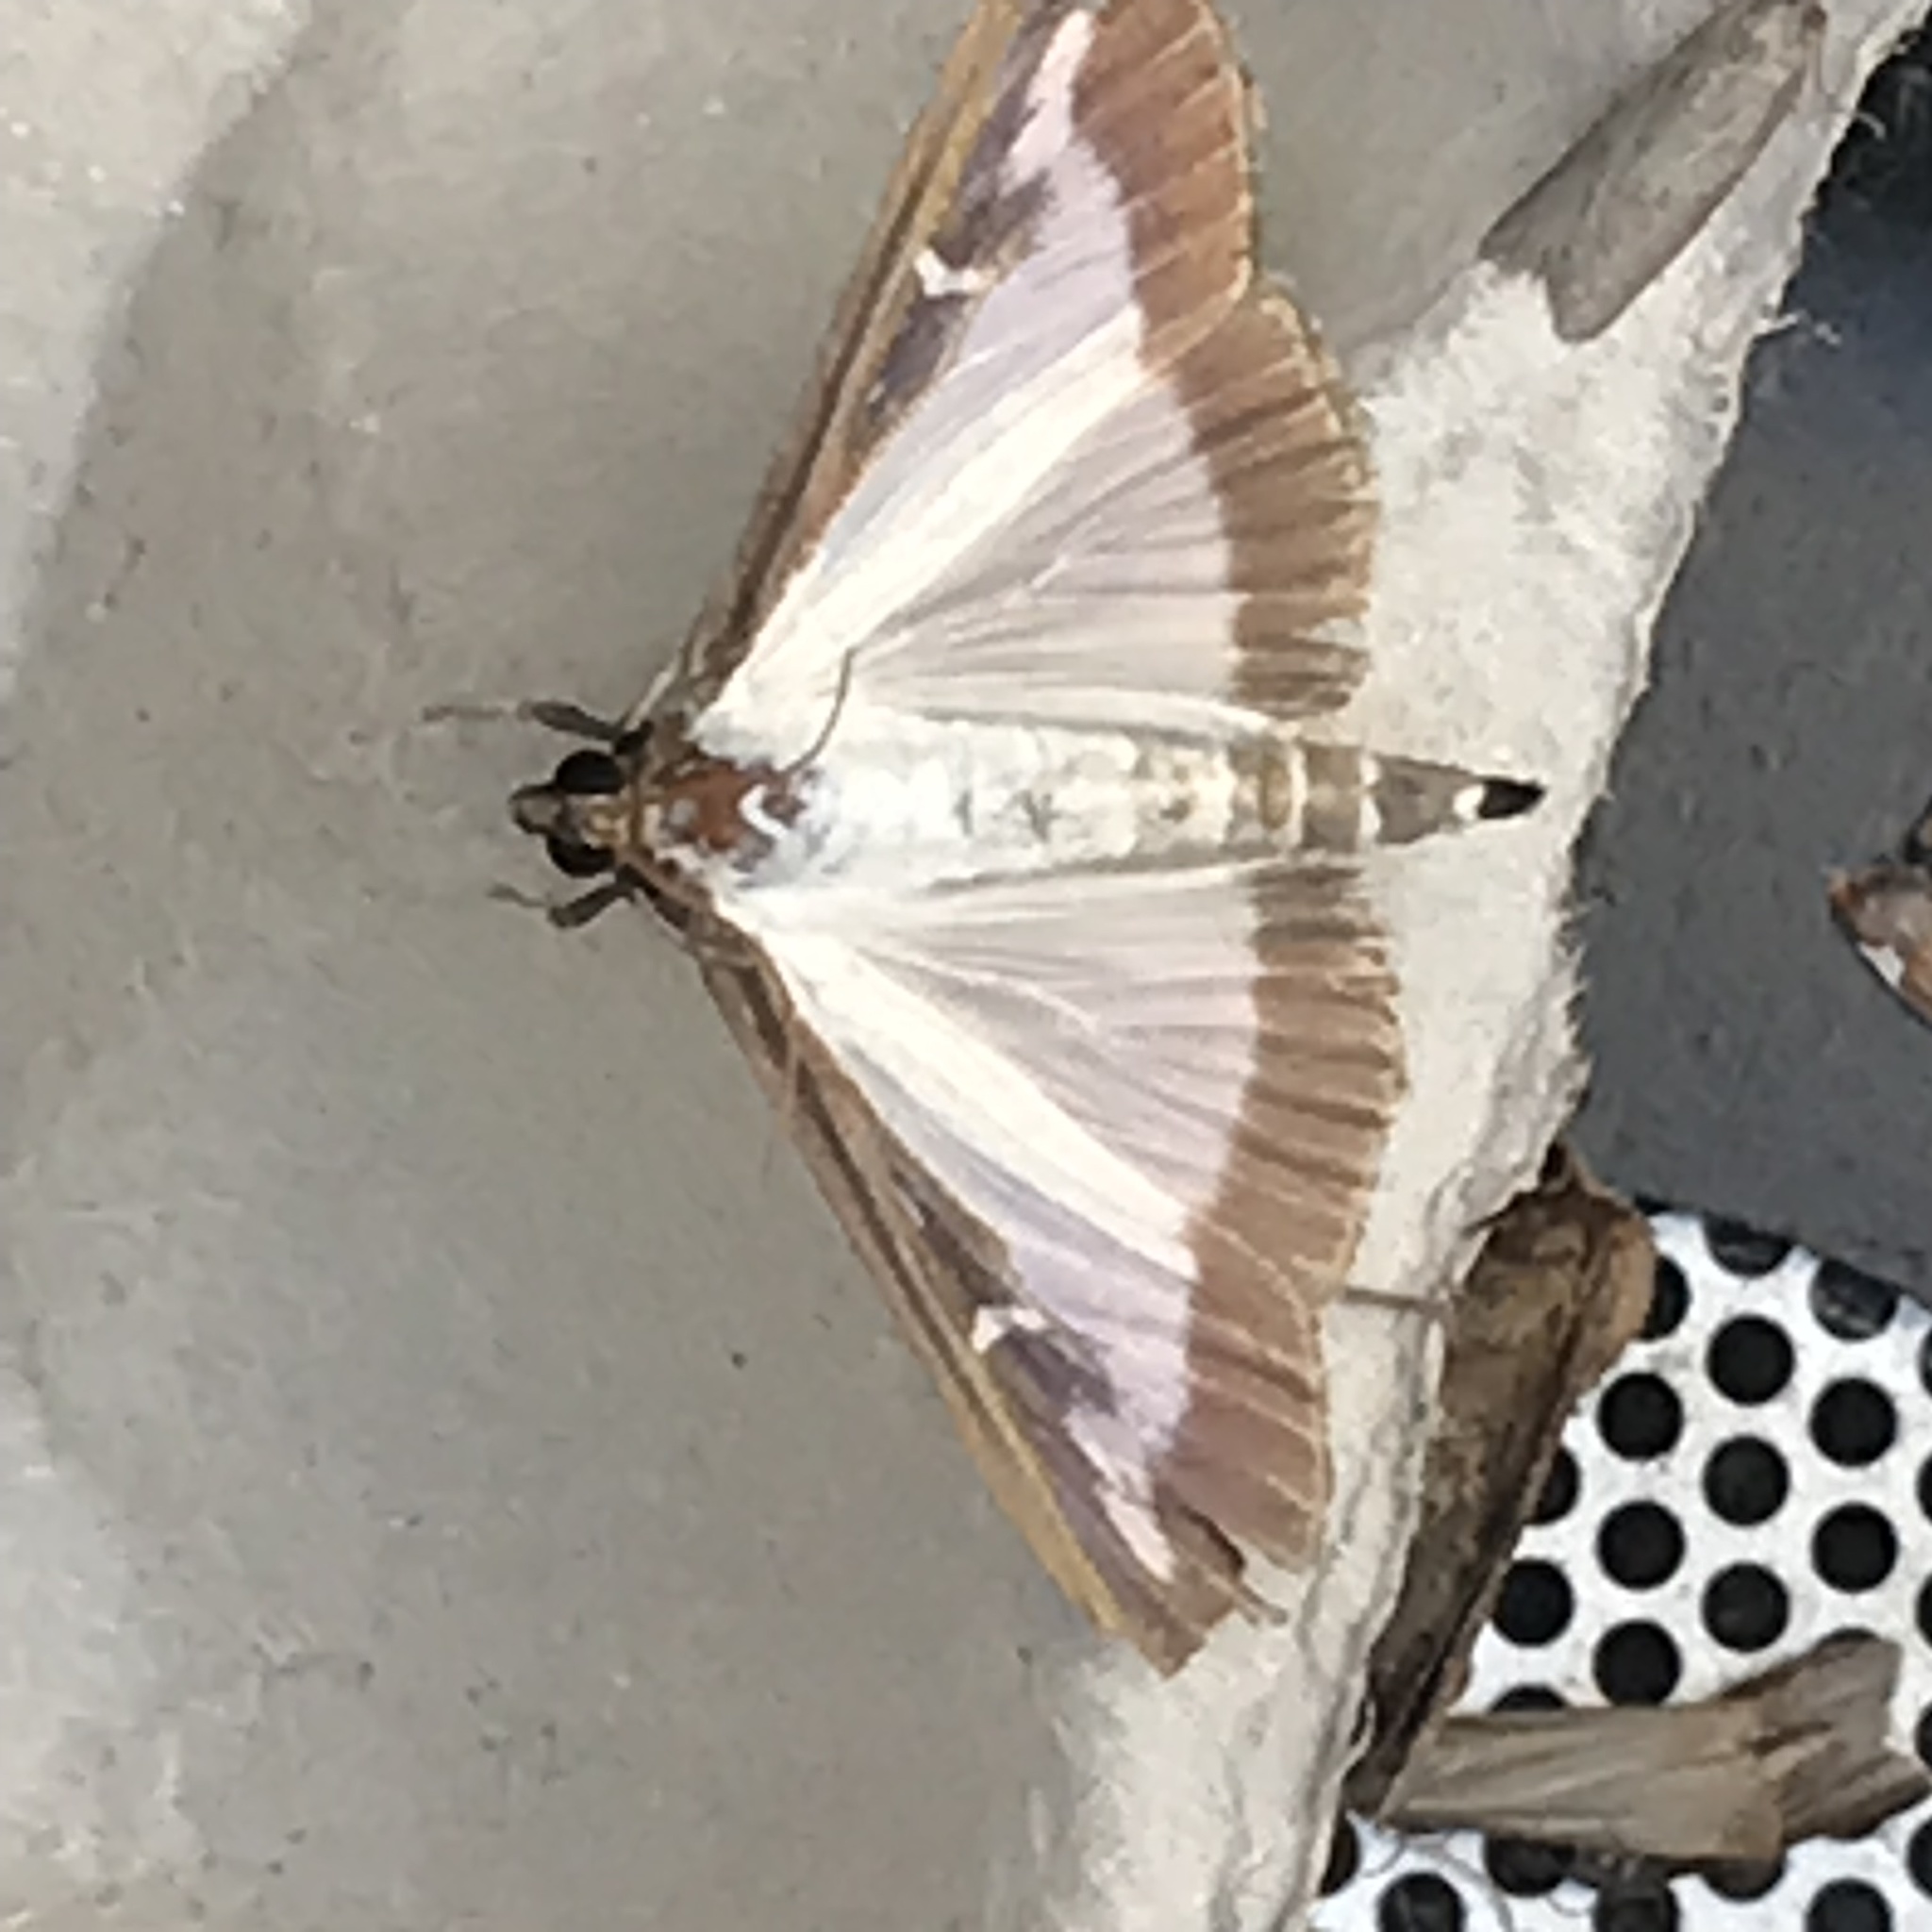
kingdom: Animalia
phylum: Arthropoda
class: Insecta
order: Lepidoptera
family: Crambidae
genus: Cydalima
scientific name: Cydalima perspectalis
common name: Box tree moth
